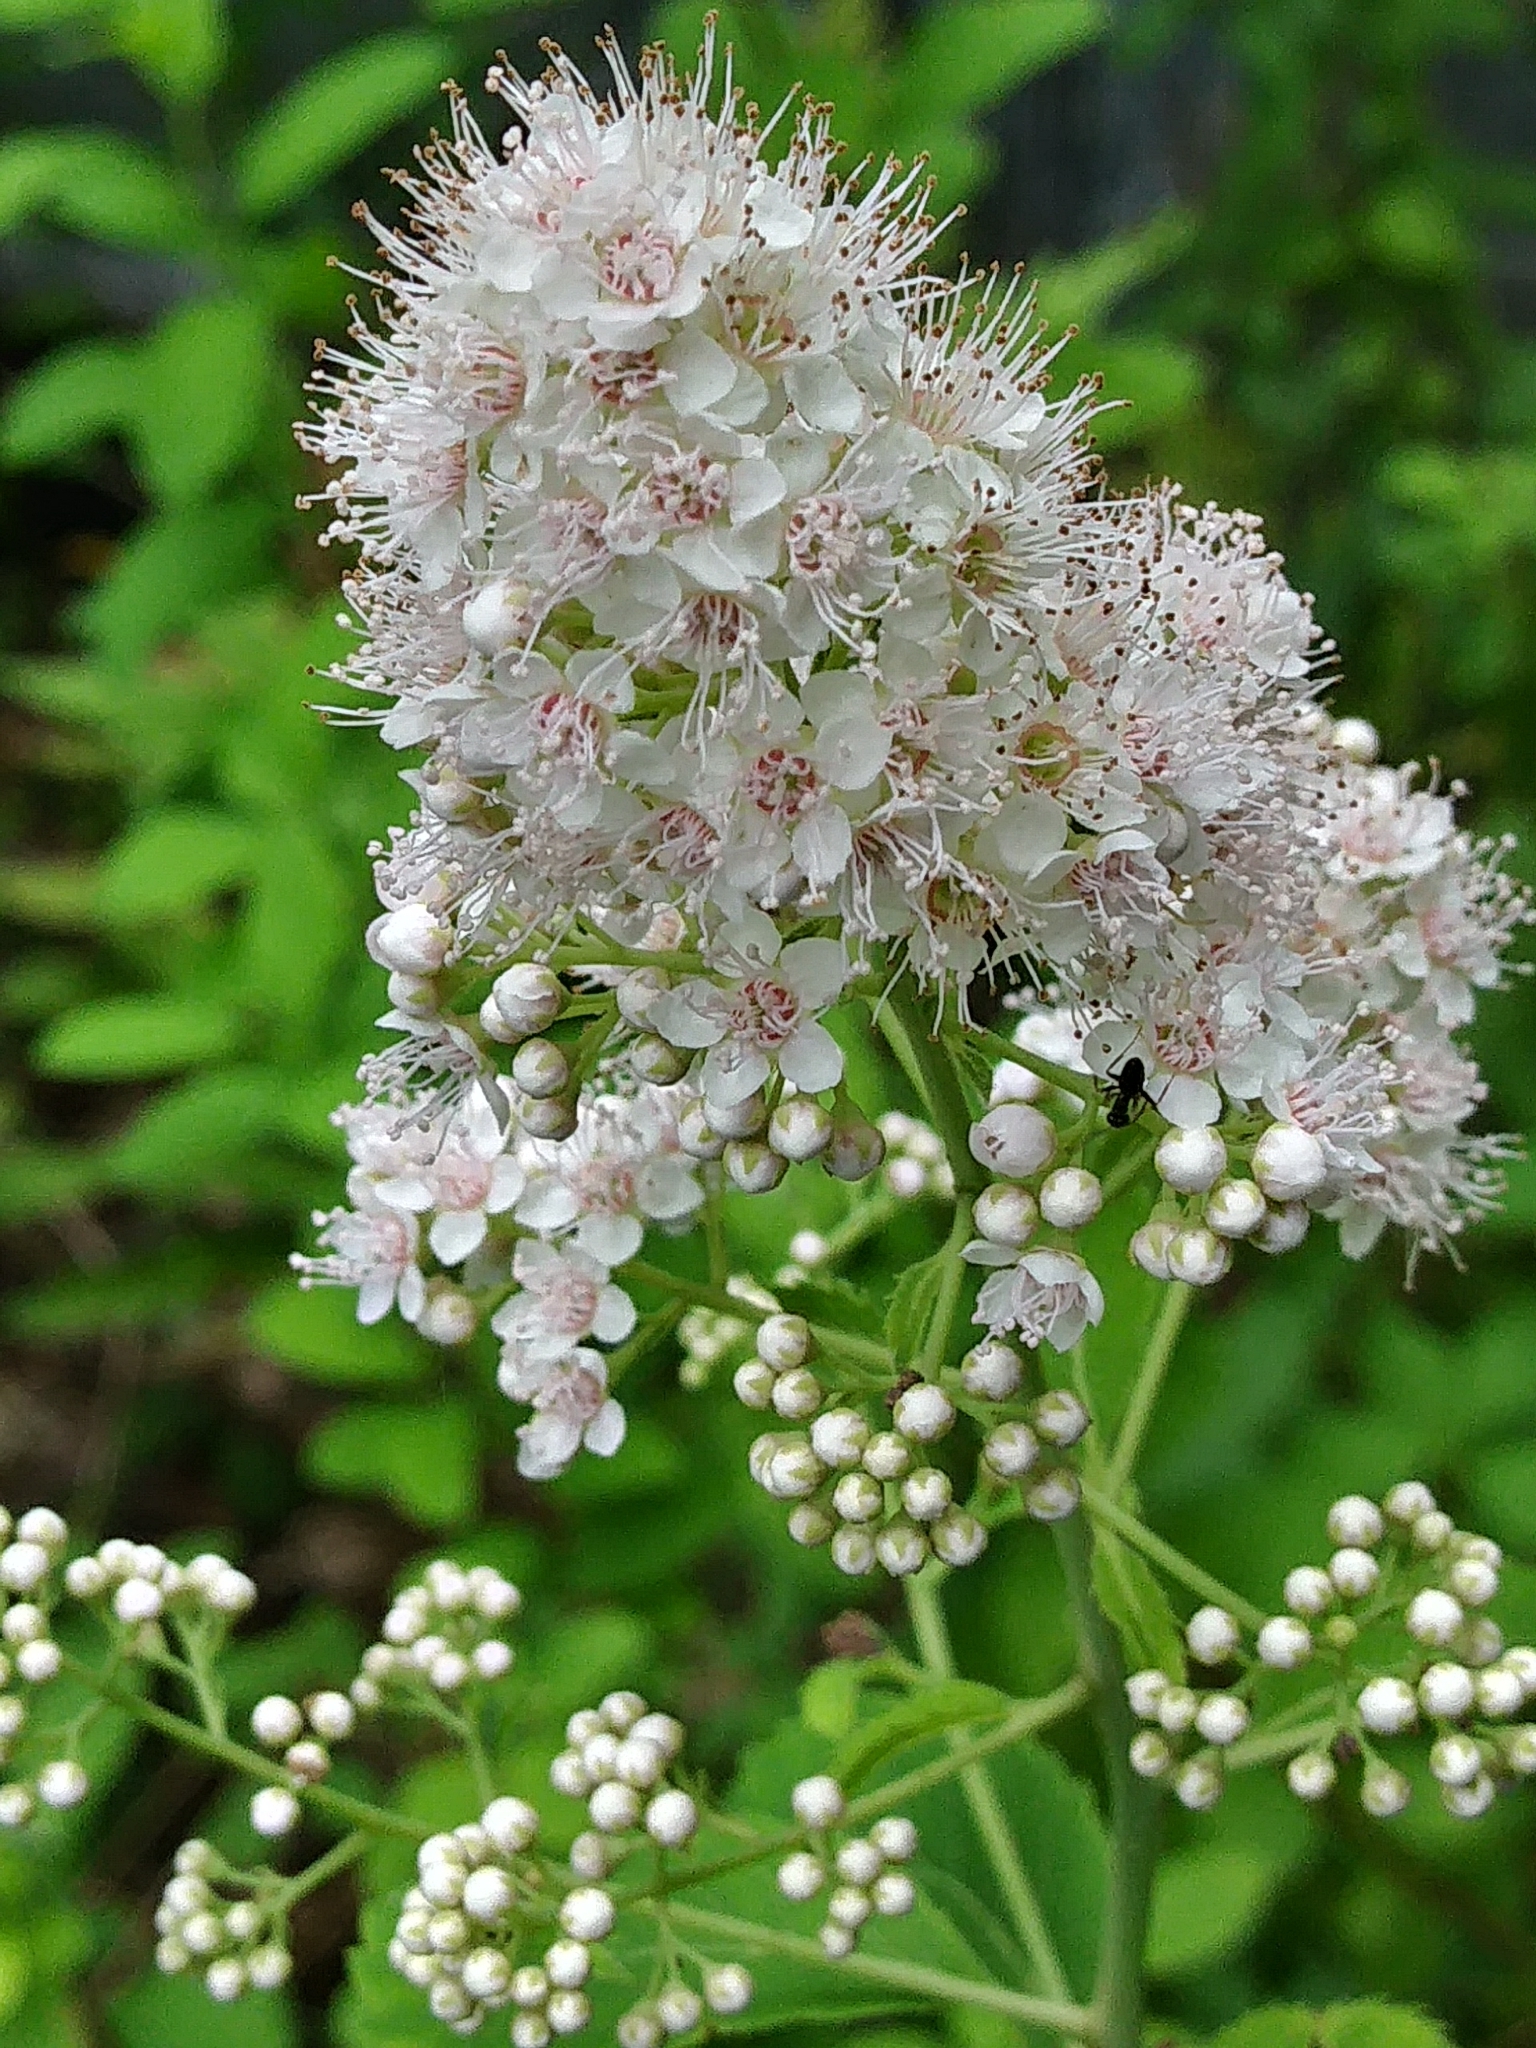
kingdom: Plantae
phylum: Tracheophyta
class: Magnoliopsida
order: Rosales
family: Rosaceae
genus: Spiraea
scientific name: Spiraea alba
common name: Pale bridewort
